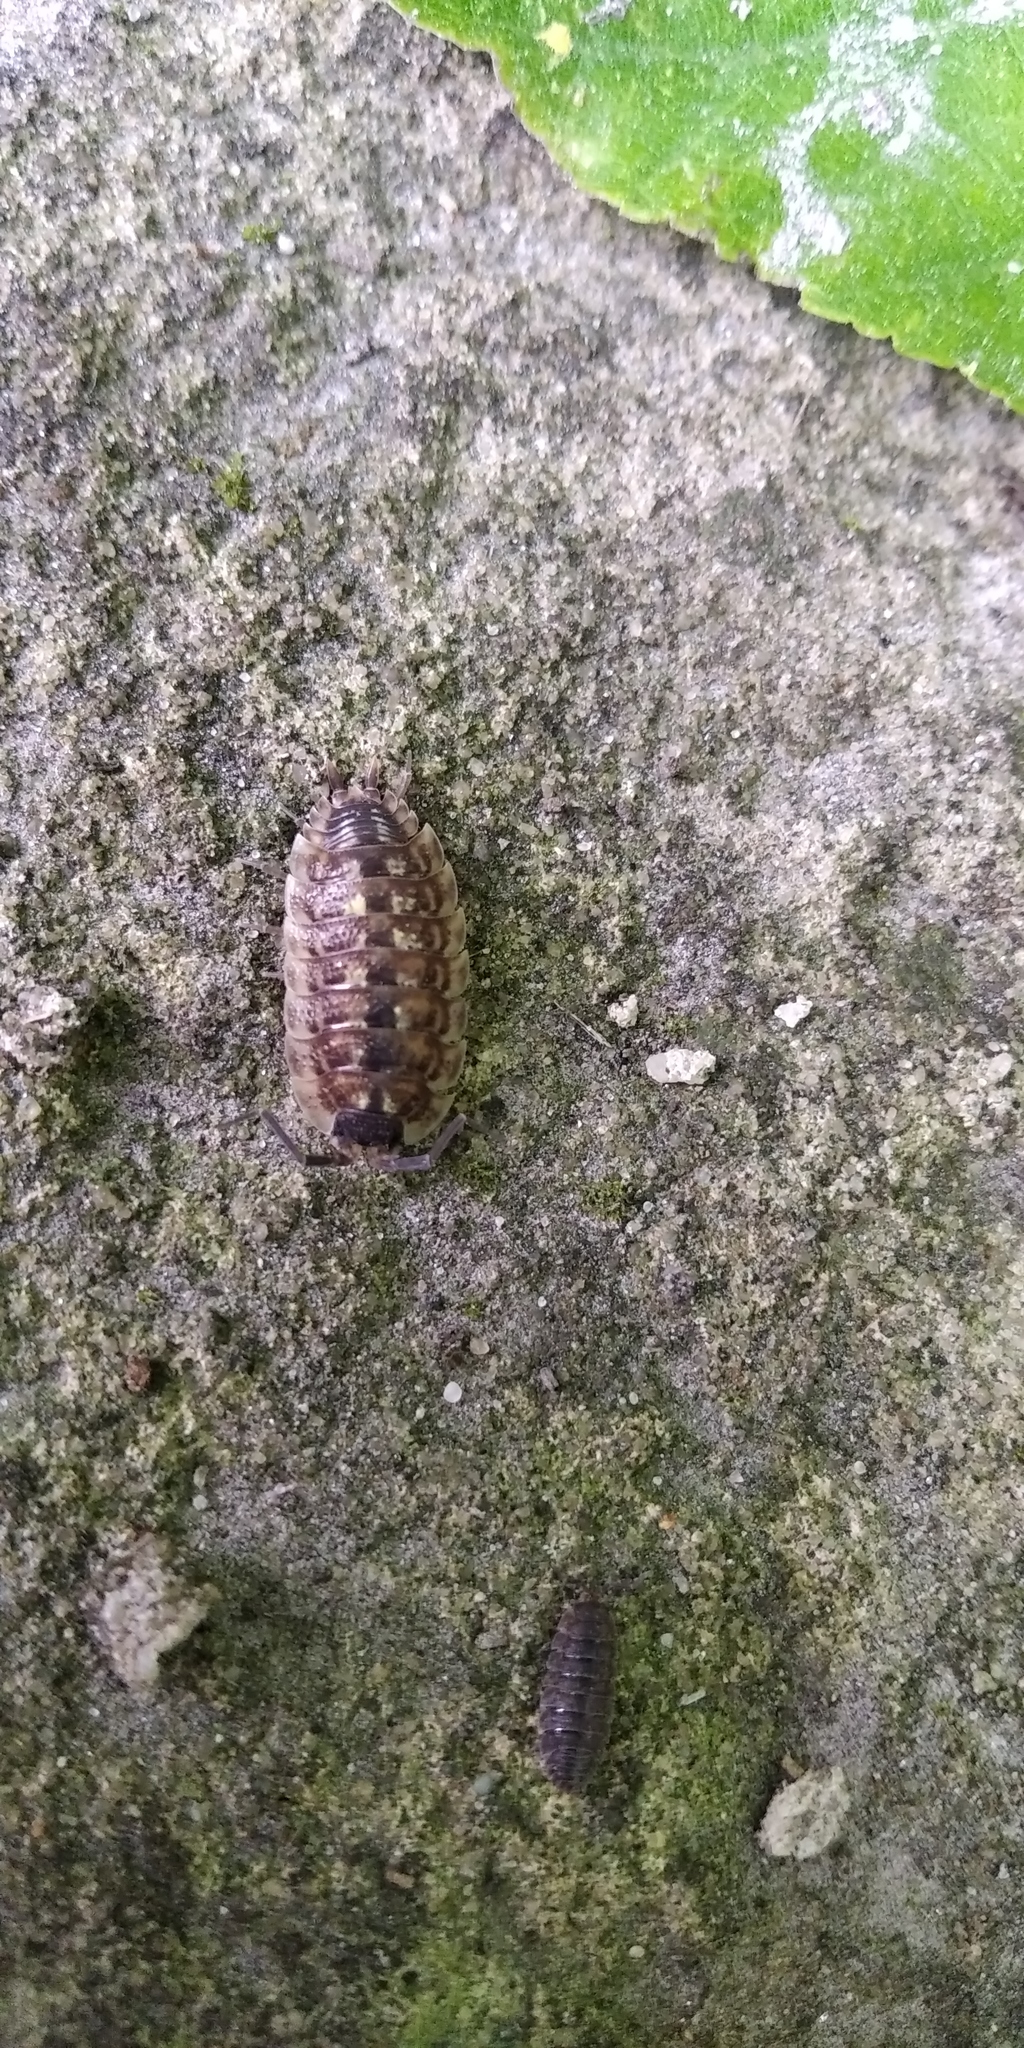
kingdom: Animalia
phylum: Arthropoda
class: Malacostraca
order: Isopoda
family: Porcellionidae
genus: Porcellio
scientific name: Porcellio spinicornis
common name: Painted woodlouse
